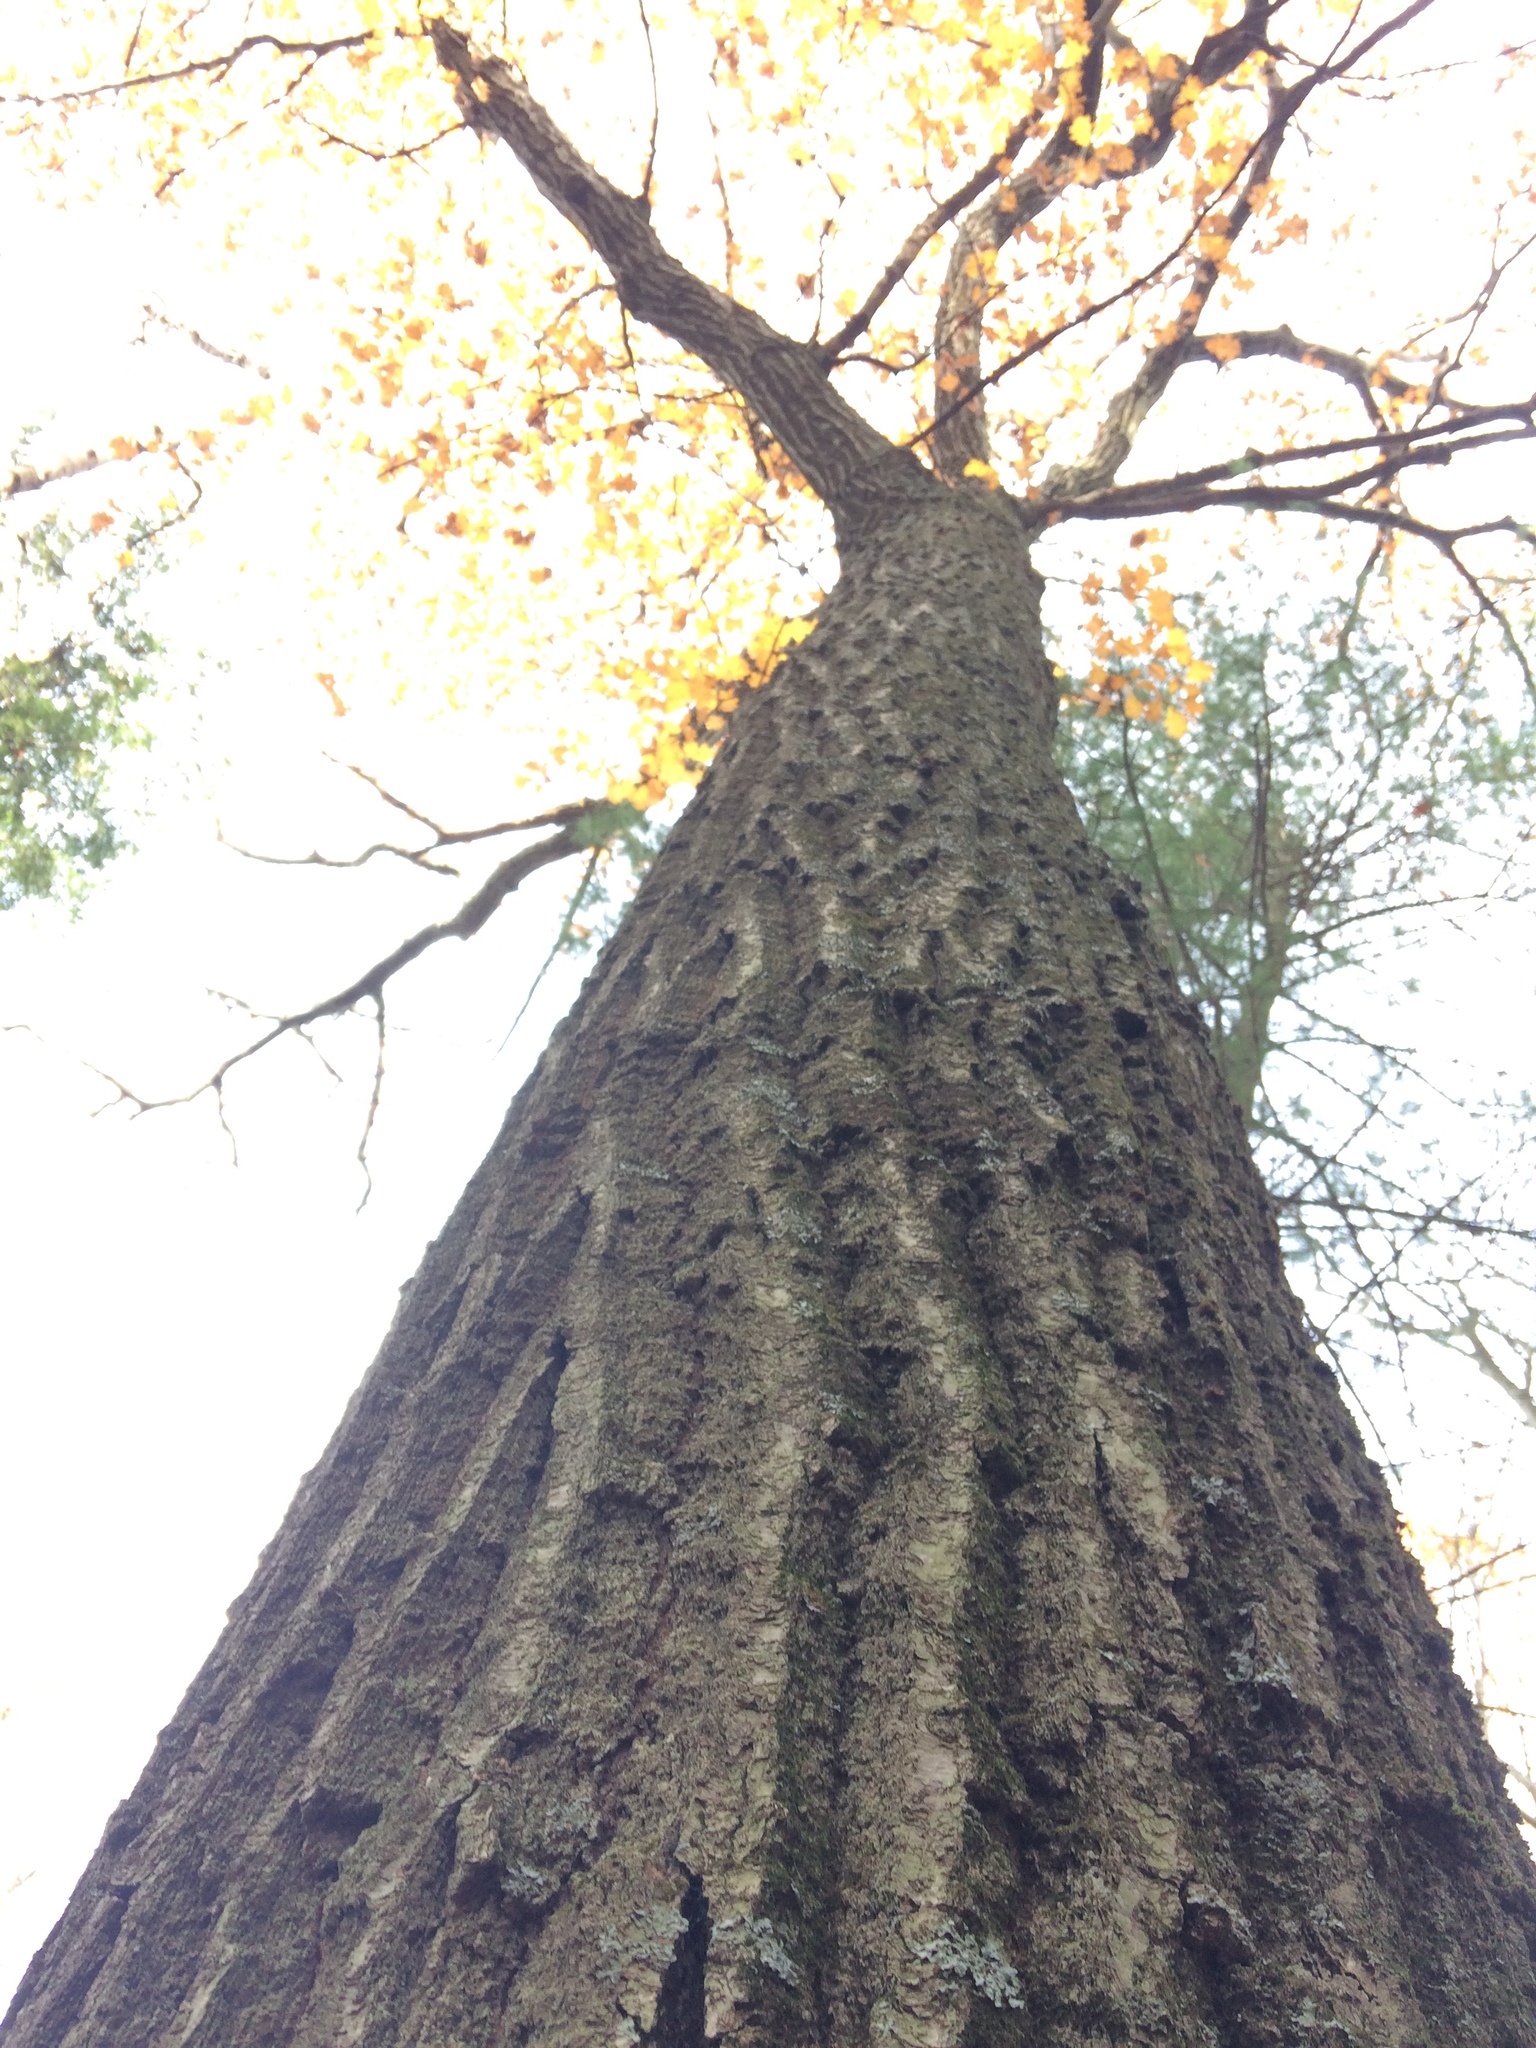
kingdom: Plantae
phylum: Tracheophyta
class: Magnoliopsida
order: Fagales
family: Fagaceae
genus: Quercus
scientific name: Quercus rubra
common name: Red oak
